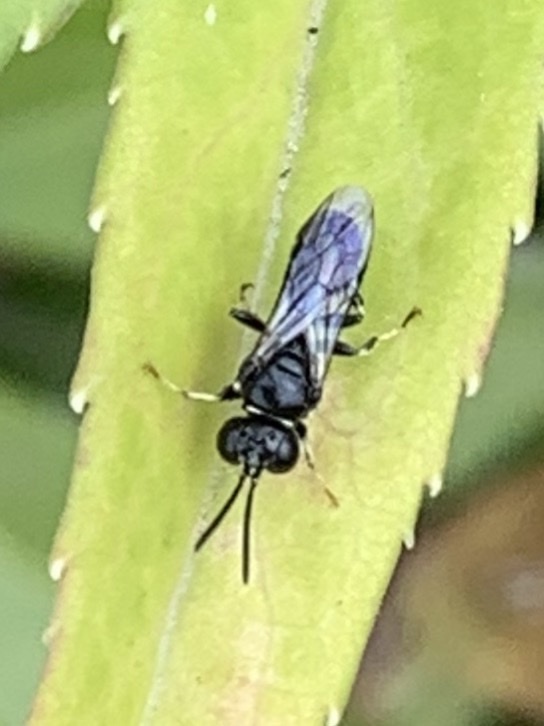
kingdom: Animalia
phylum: Arthropoda
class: Insecta
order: Hymenoptera
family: Crabronidae
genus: Clitemnestra
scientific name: Clitemnestra bipunctata
